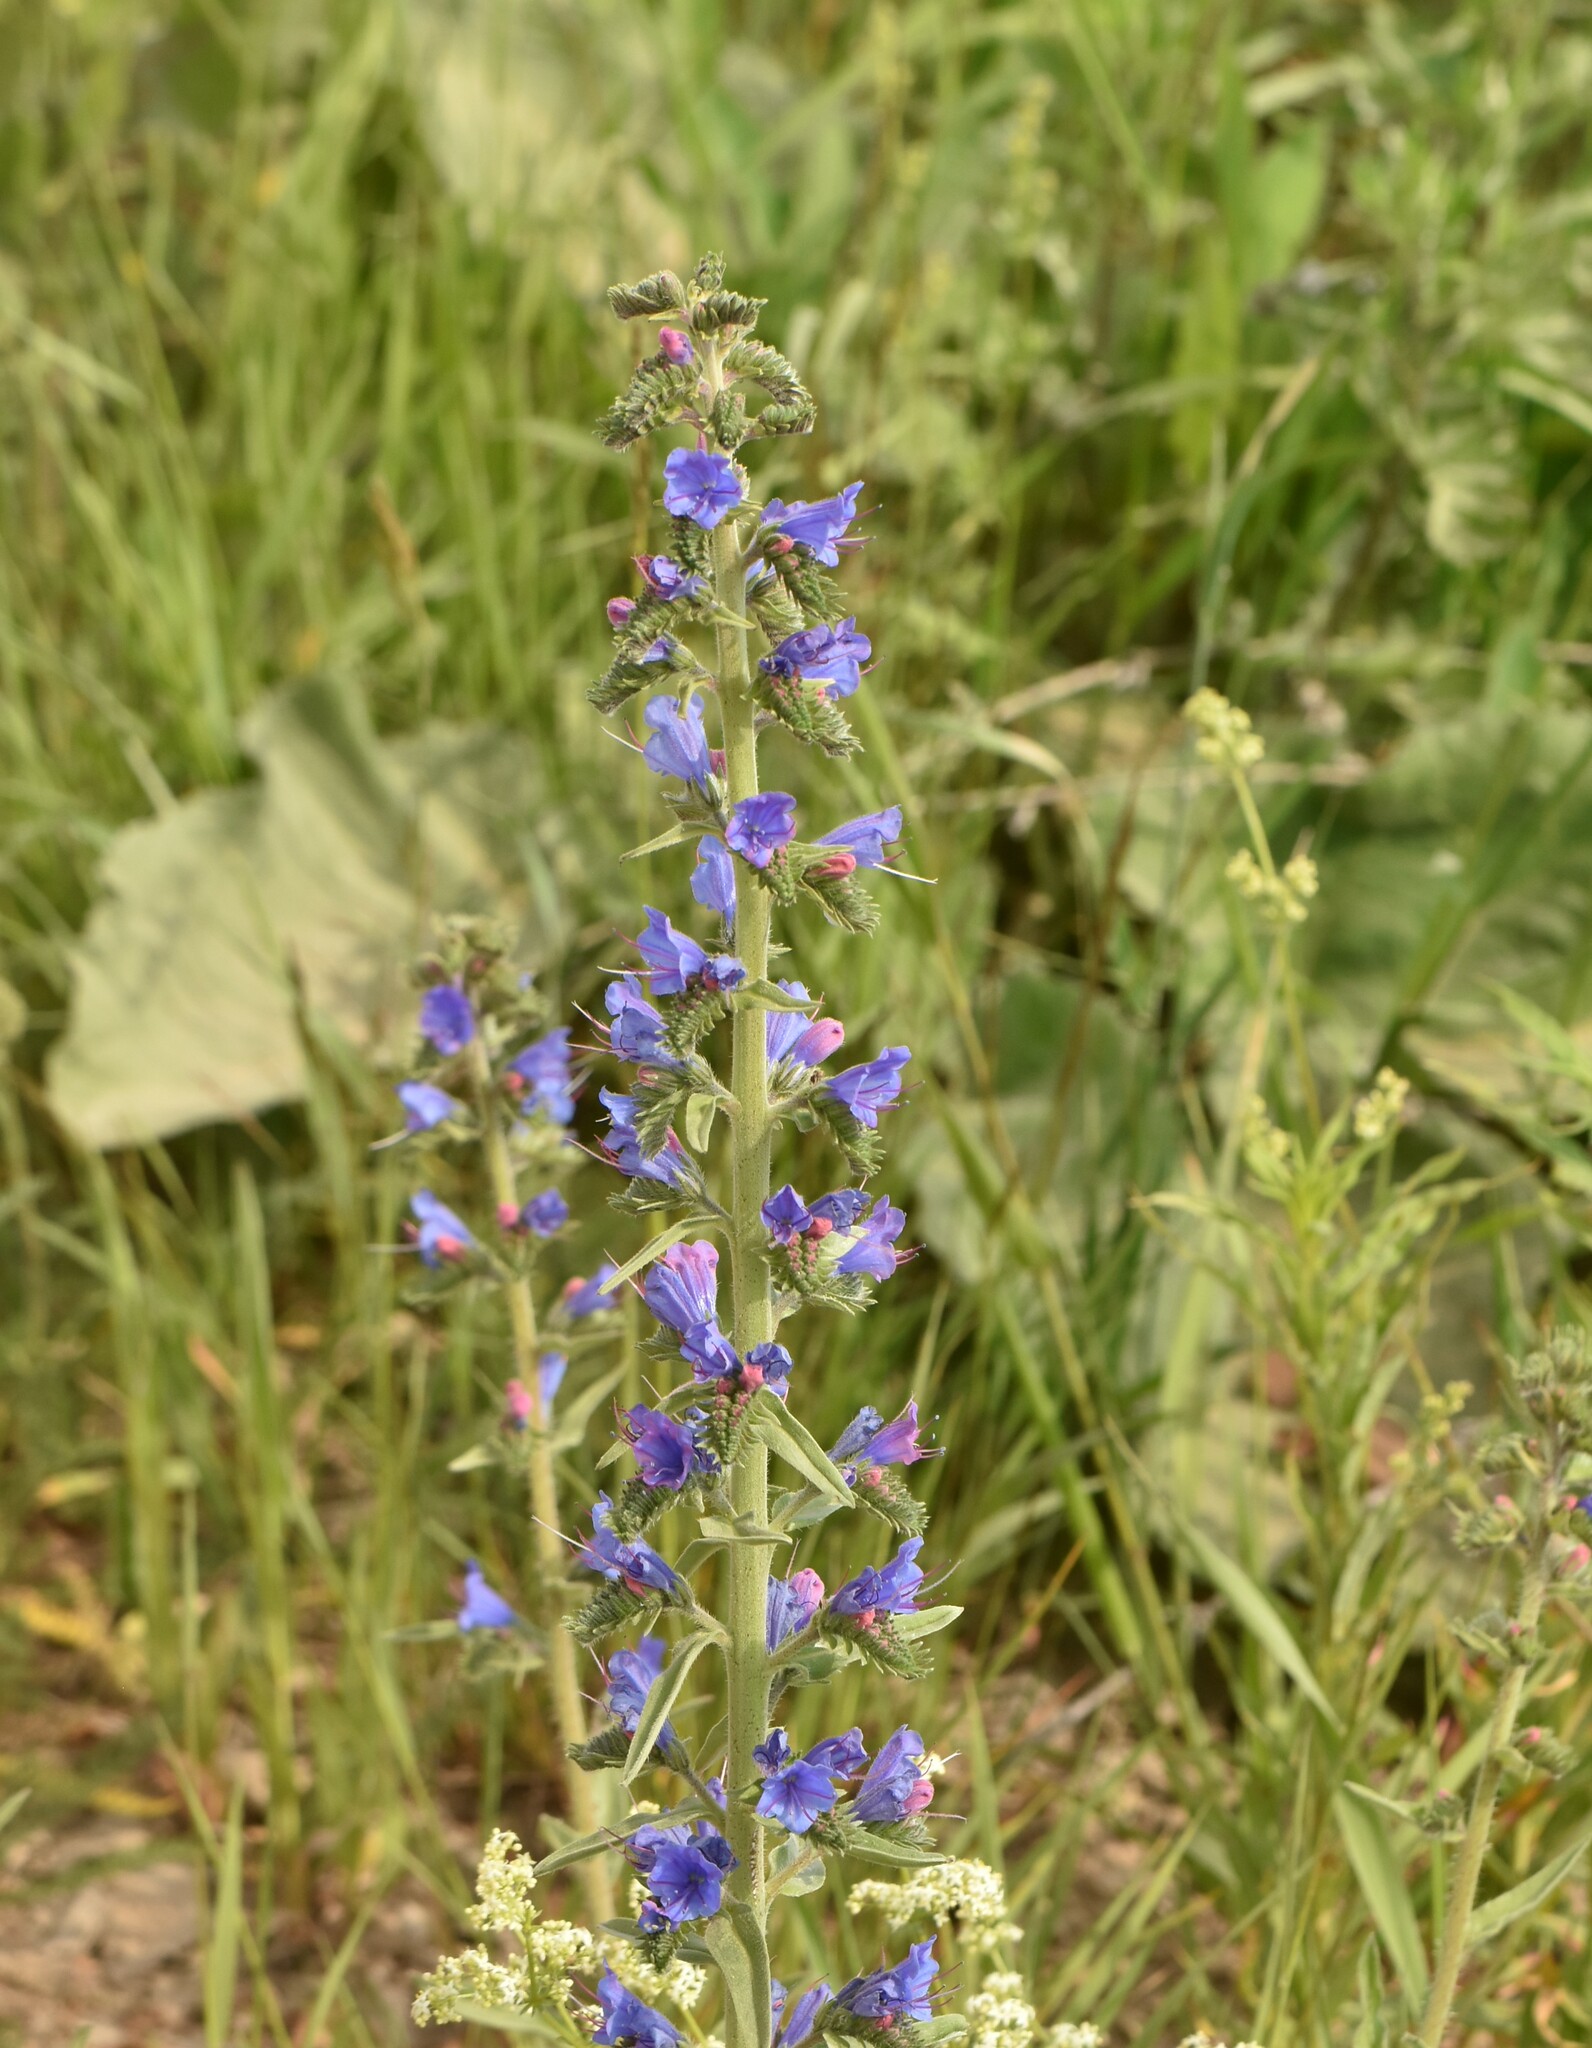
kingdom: Plantae
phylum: Tracheophyta
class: Magnoliopsida
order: Boraginales
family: Boraginaceae
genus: Echium
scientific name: Echium vulgare
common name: Common viper's bugloss
